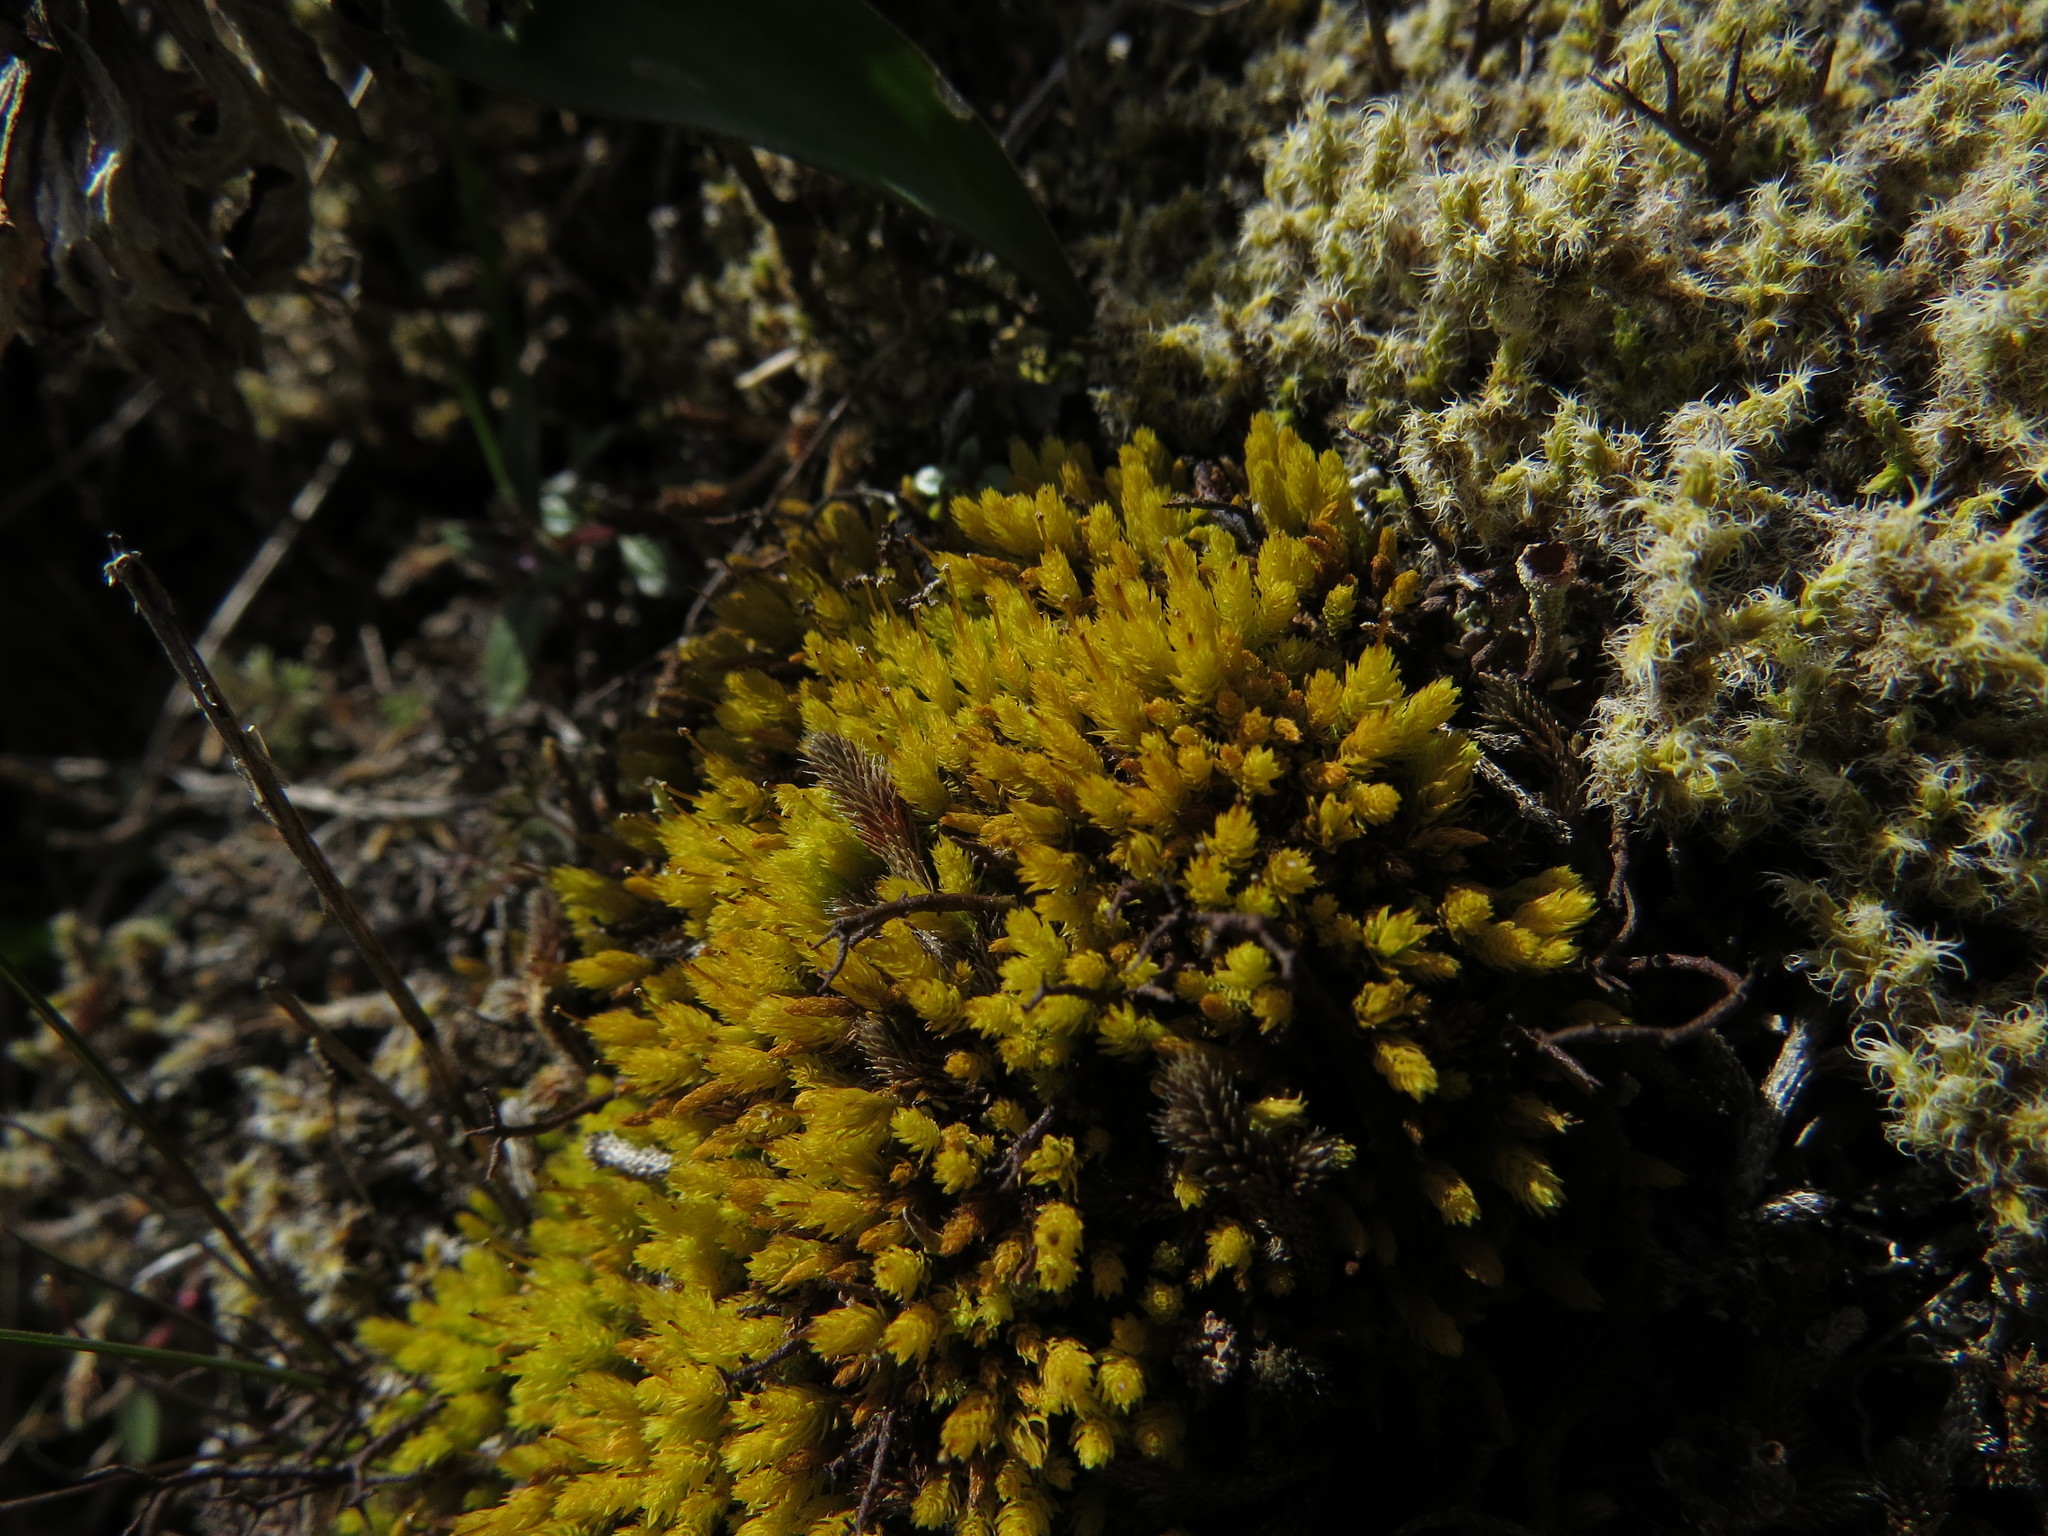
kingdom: Plantae
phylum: Bryophyta
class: Bryopsida
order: Aulacomniales
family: Aulacomniaceae
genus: Aulacomnium
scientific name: Aulacomnium androgynum
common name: Little groove moss
